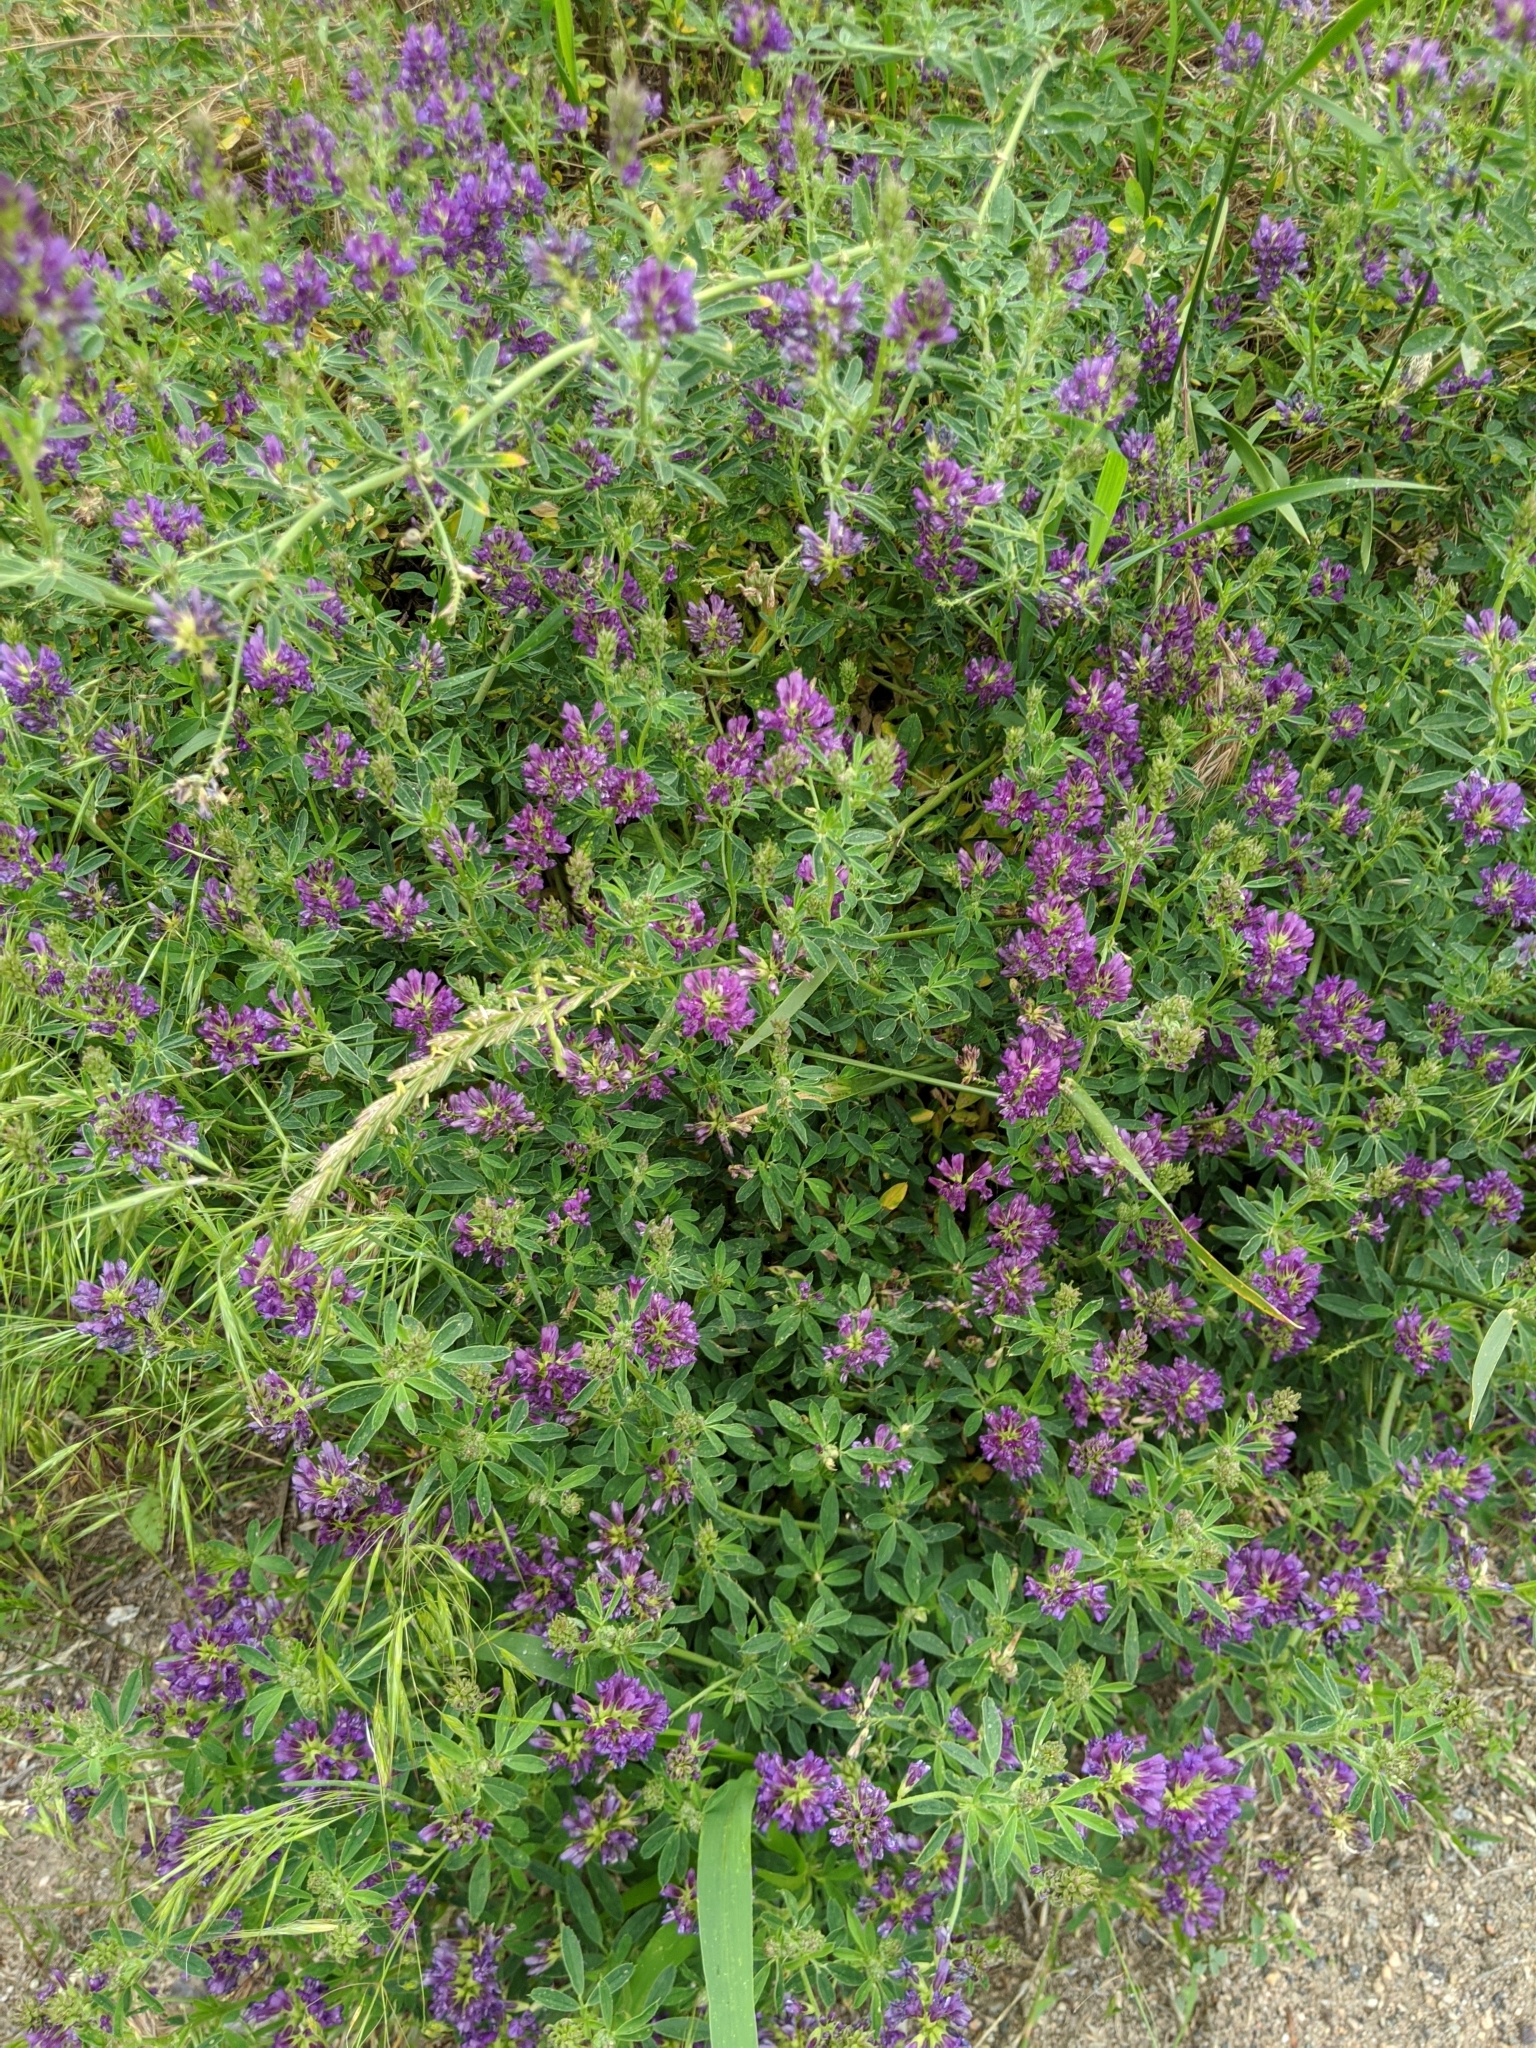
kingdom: Plantae
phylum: Tracheophyta
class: Magnoliopsida
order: Fabales
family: Fabaceae
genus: Medicago
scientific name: Medicago sativa
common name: Alfalfa
